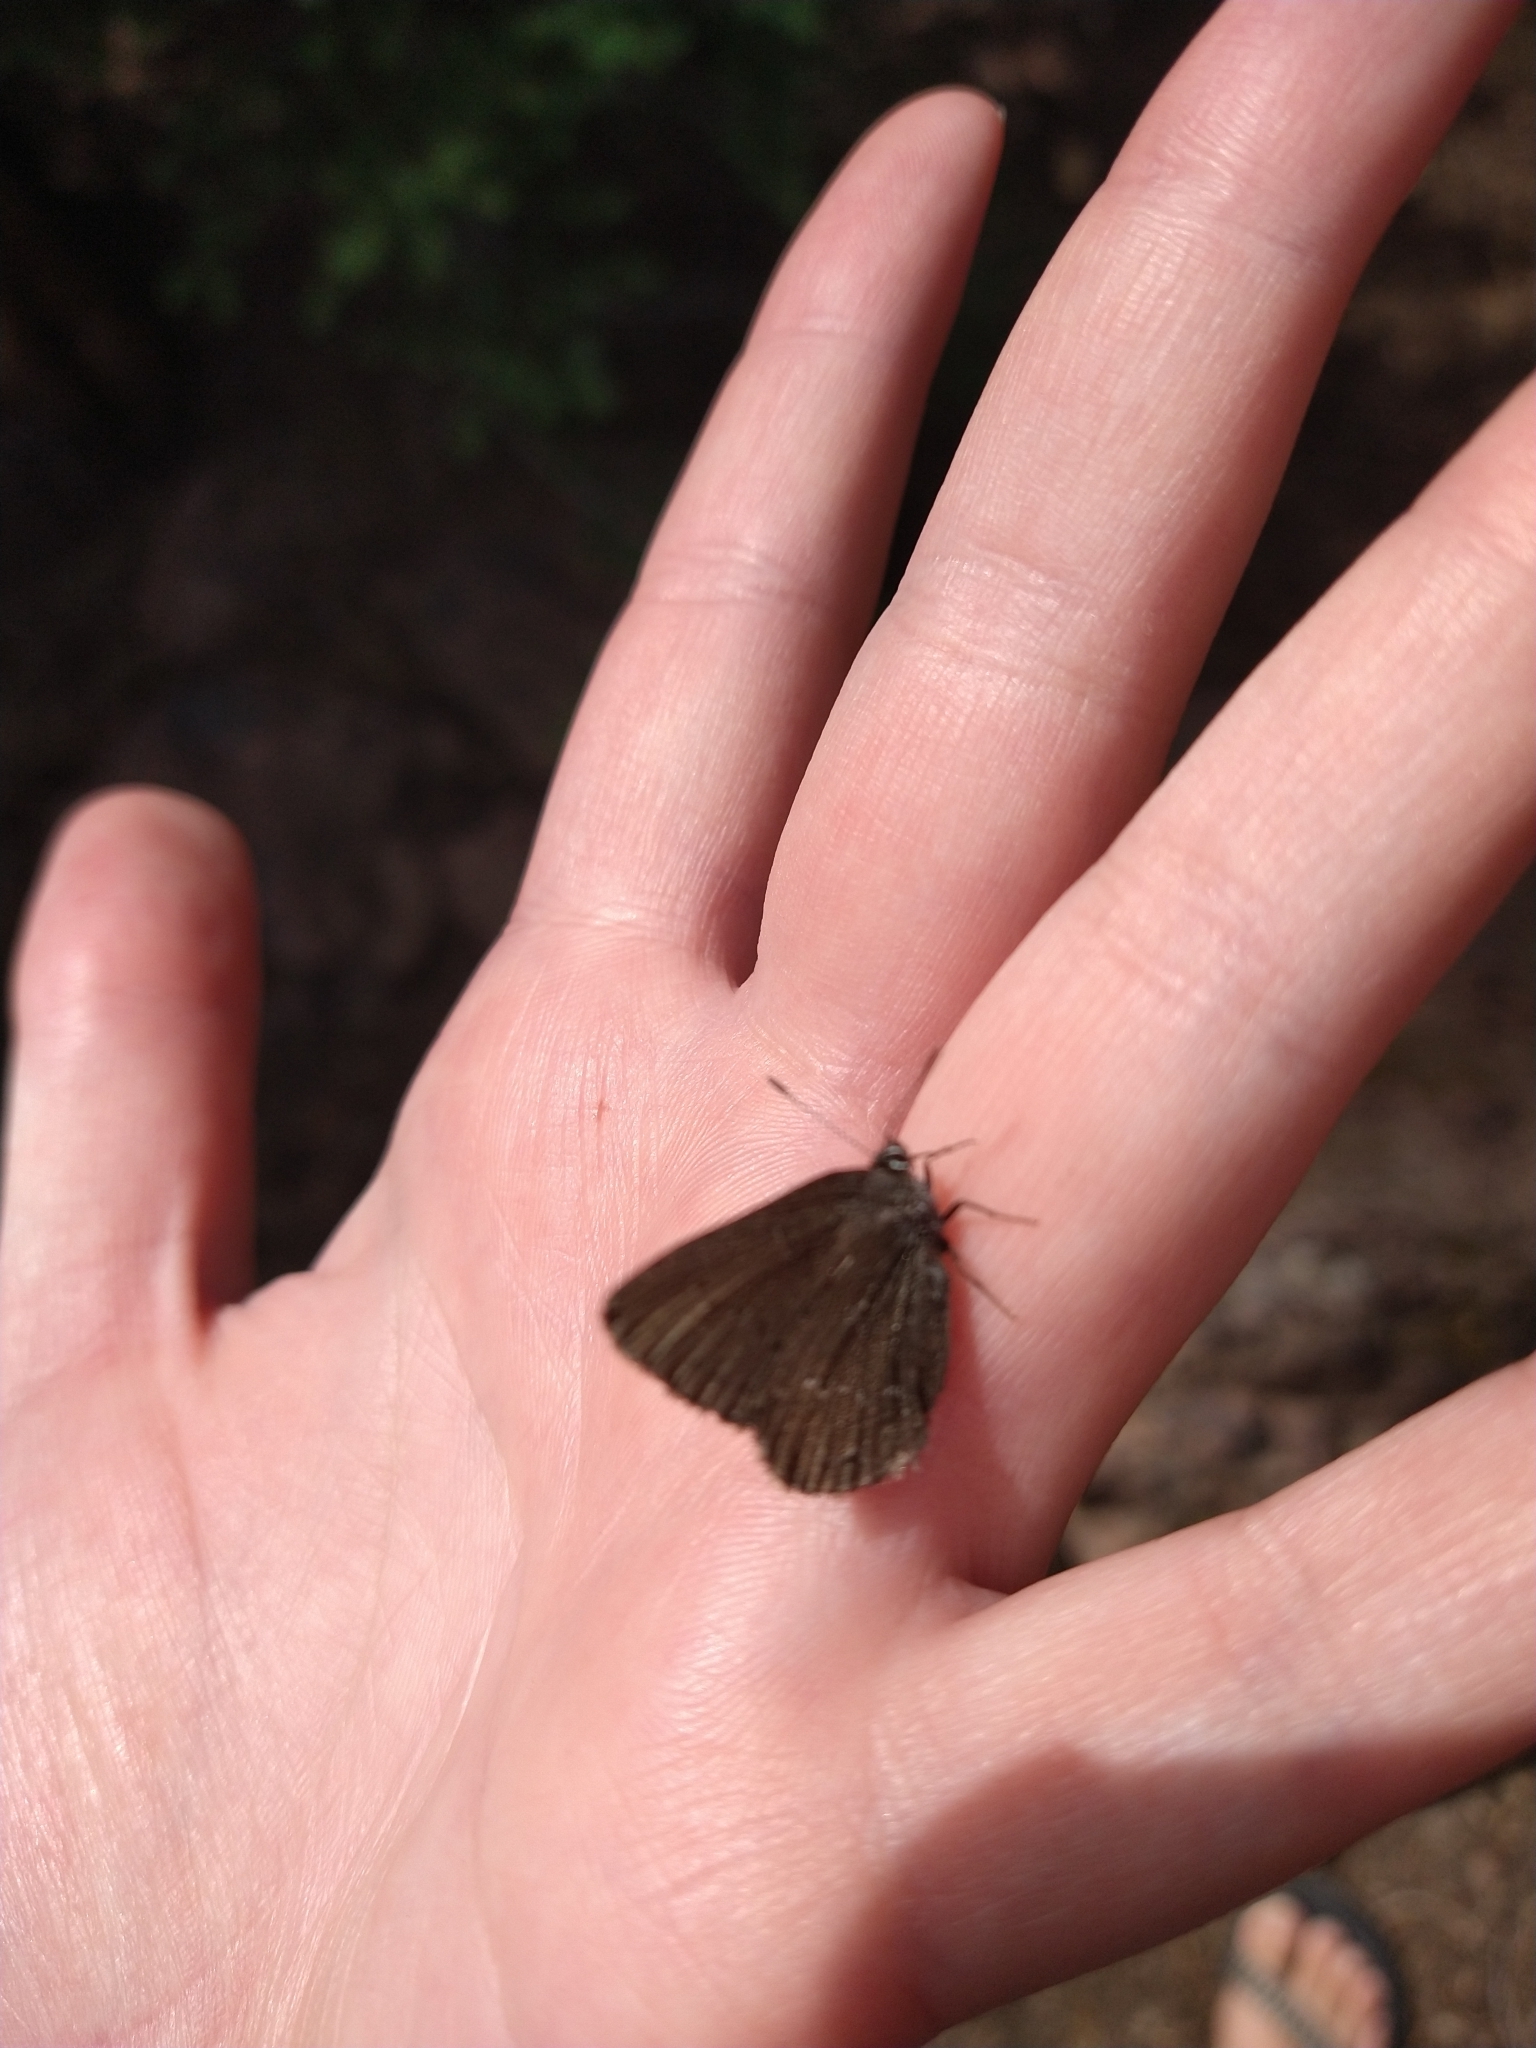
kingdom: Animalia
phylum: Arthropoda
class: Insecta
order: Lepidoptera
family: Lycaenidae
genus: Satyrium
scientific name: Satyrium fuliginosa
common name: Western sooty hairstreak
